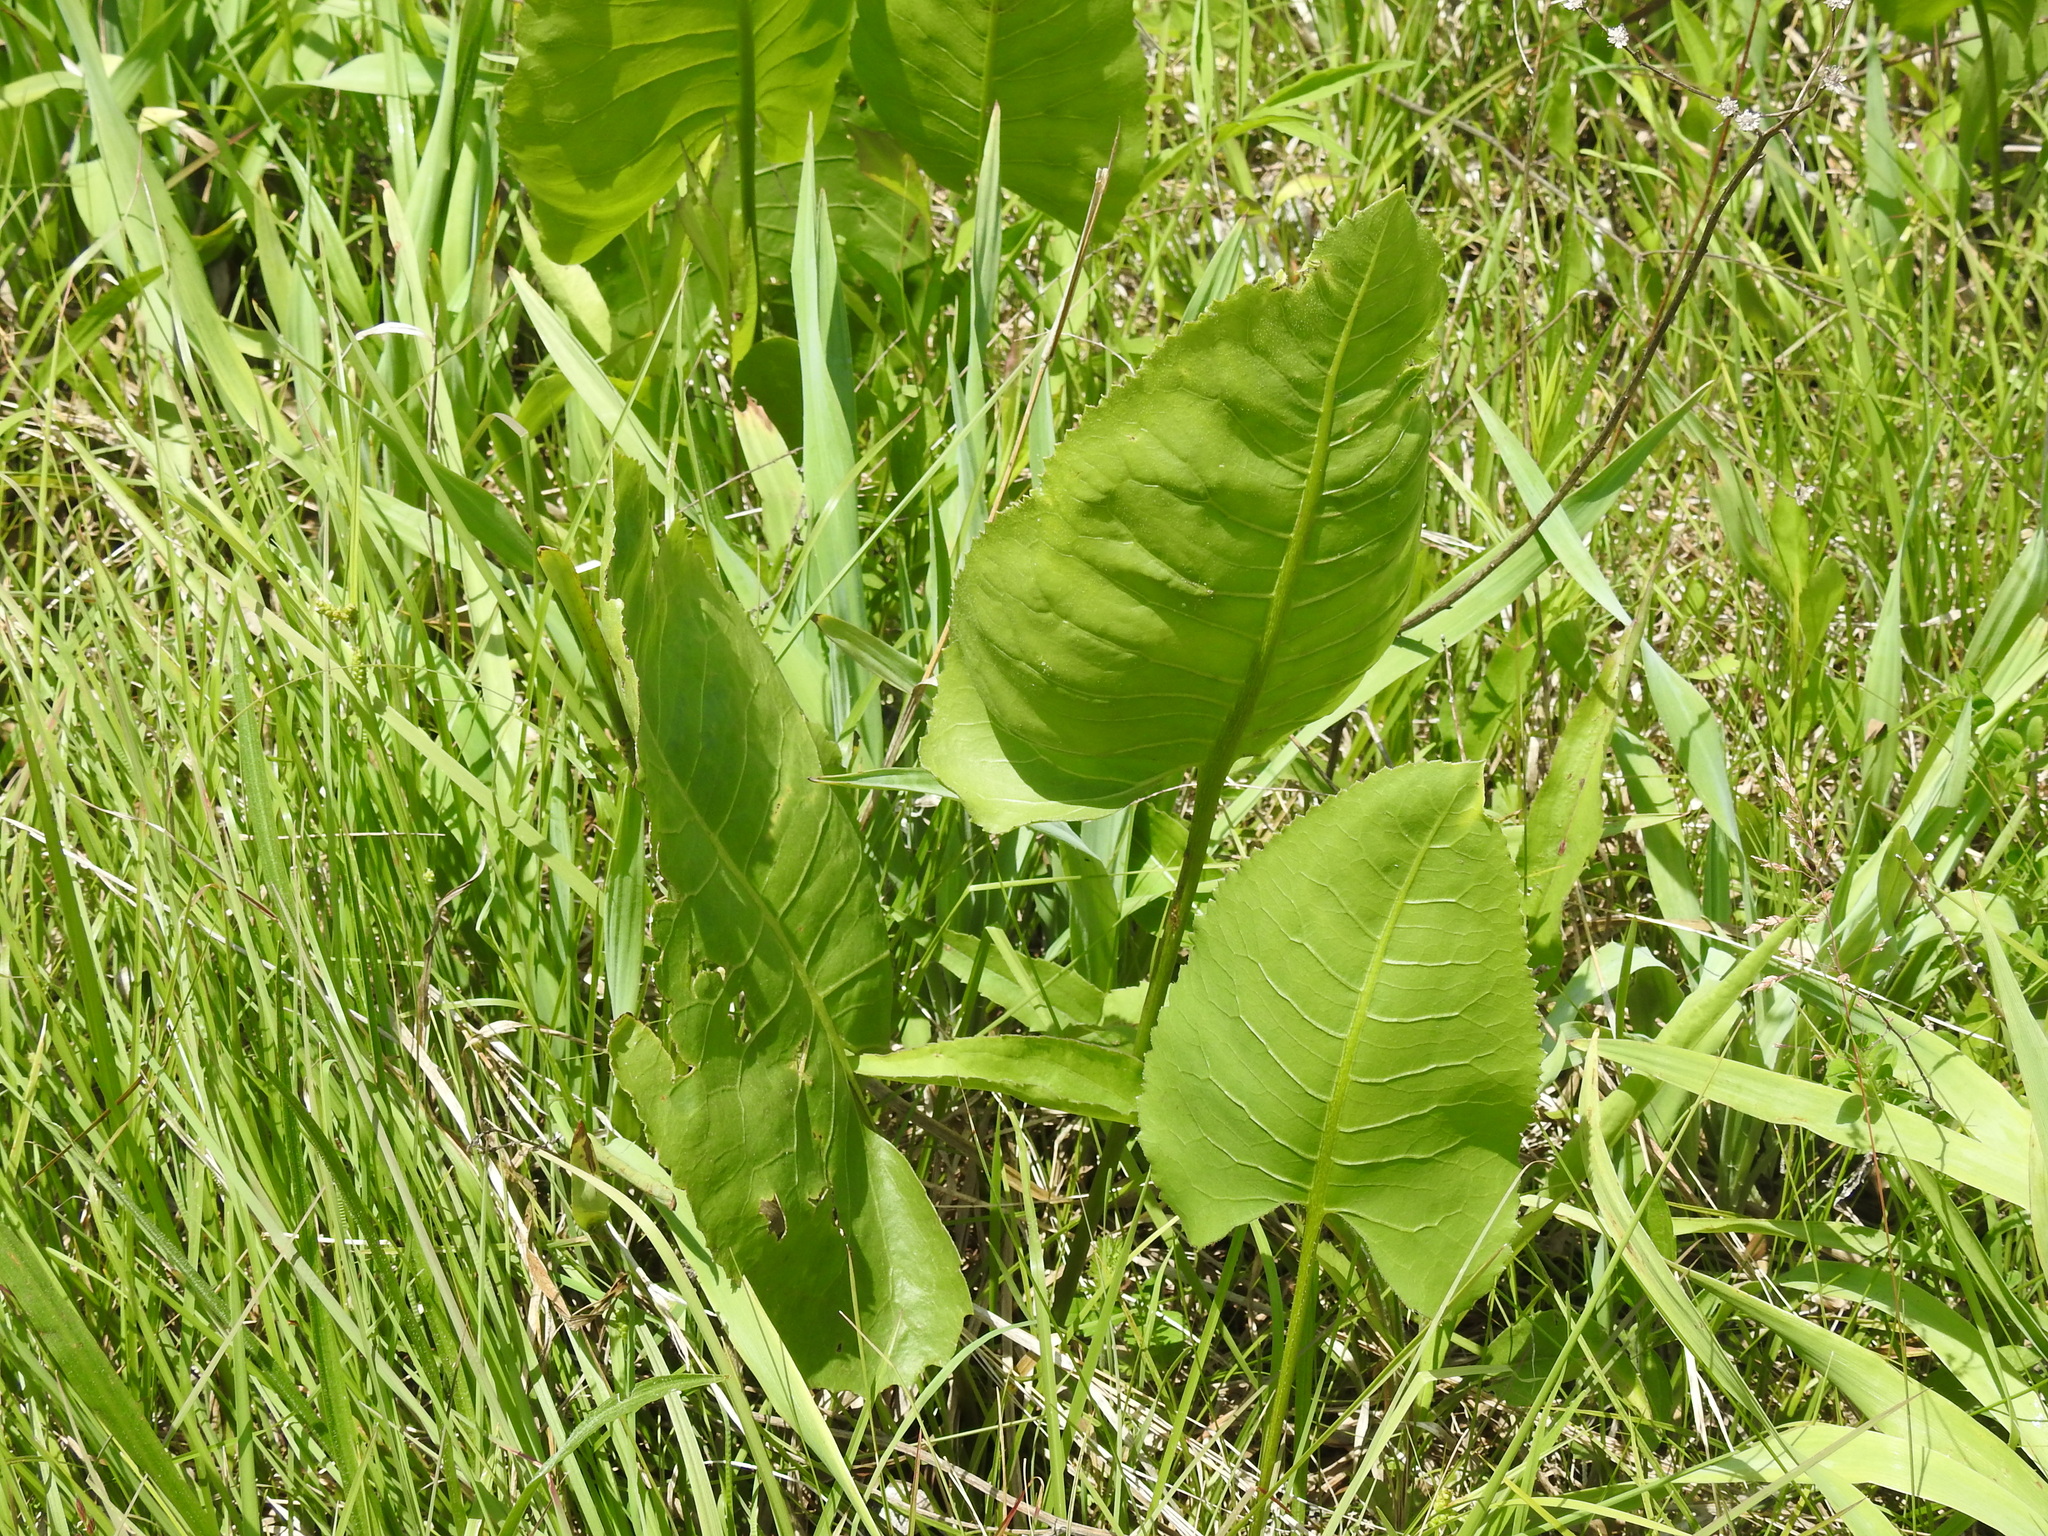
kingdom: Plantae
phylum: Tracheophyta
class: Magnoliopsida
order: Asterales
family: Asteraceae
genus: Silphium
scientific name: Silphium terebinthinaceum
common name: Basal-leaf rosinweed
